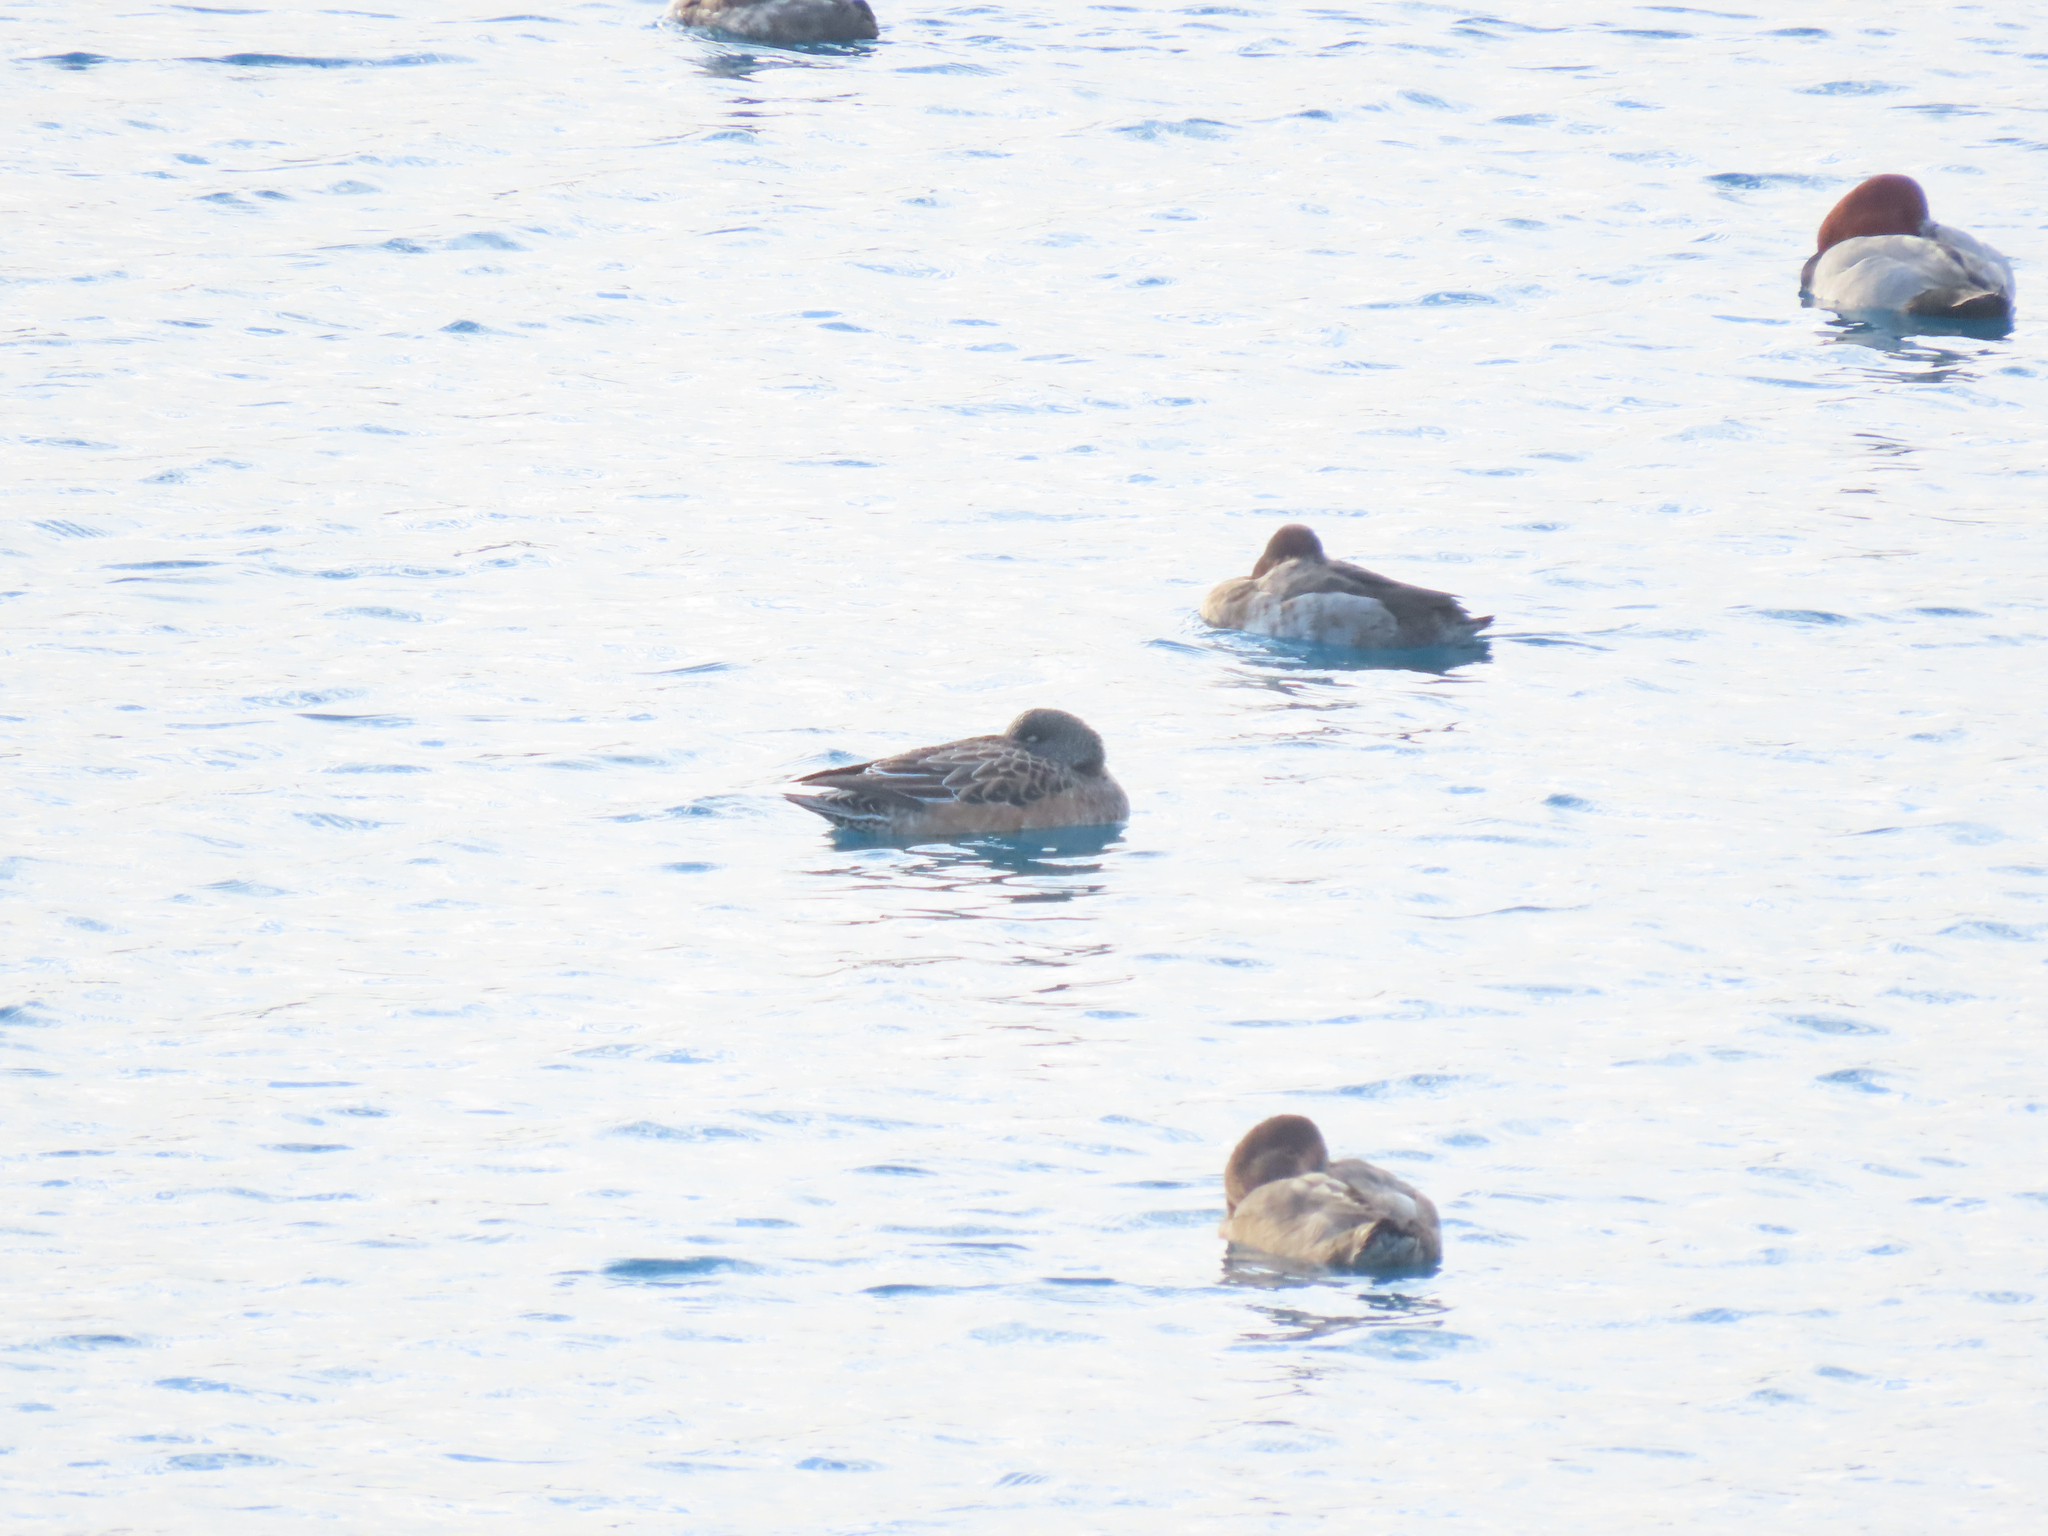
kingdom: Animalia
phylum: Chordata
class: Aves
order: Anseriformes
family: Anatidae
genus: Mareca
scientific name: Mareca americana
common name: American wigeon
